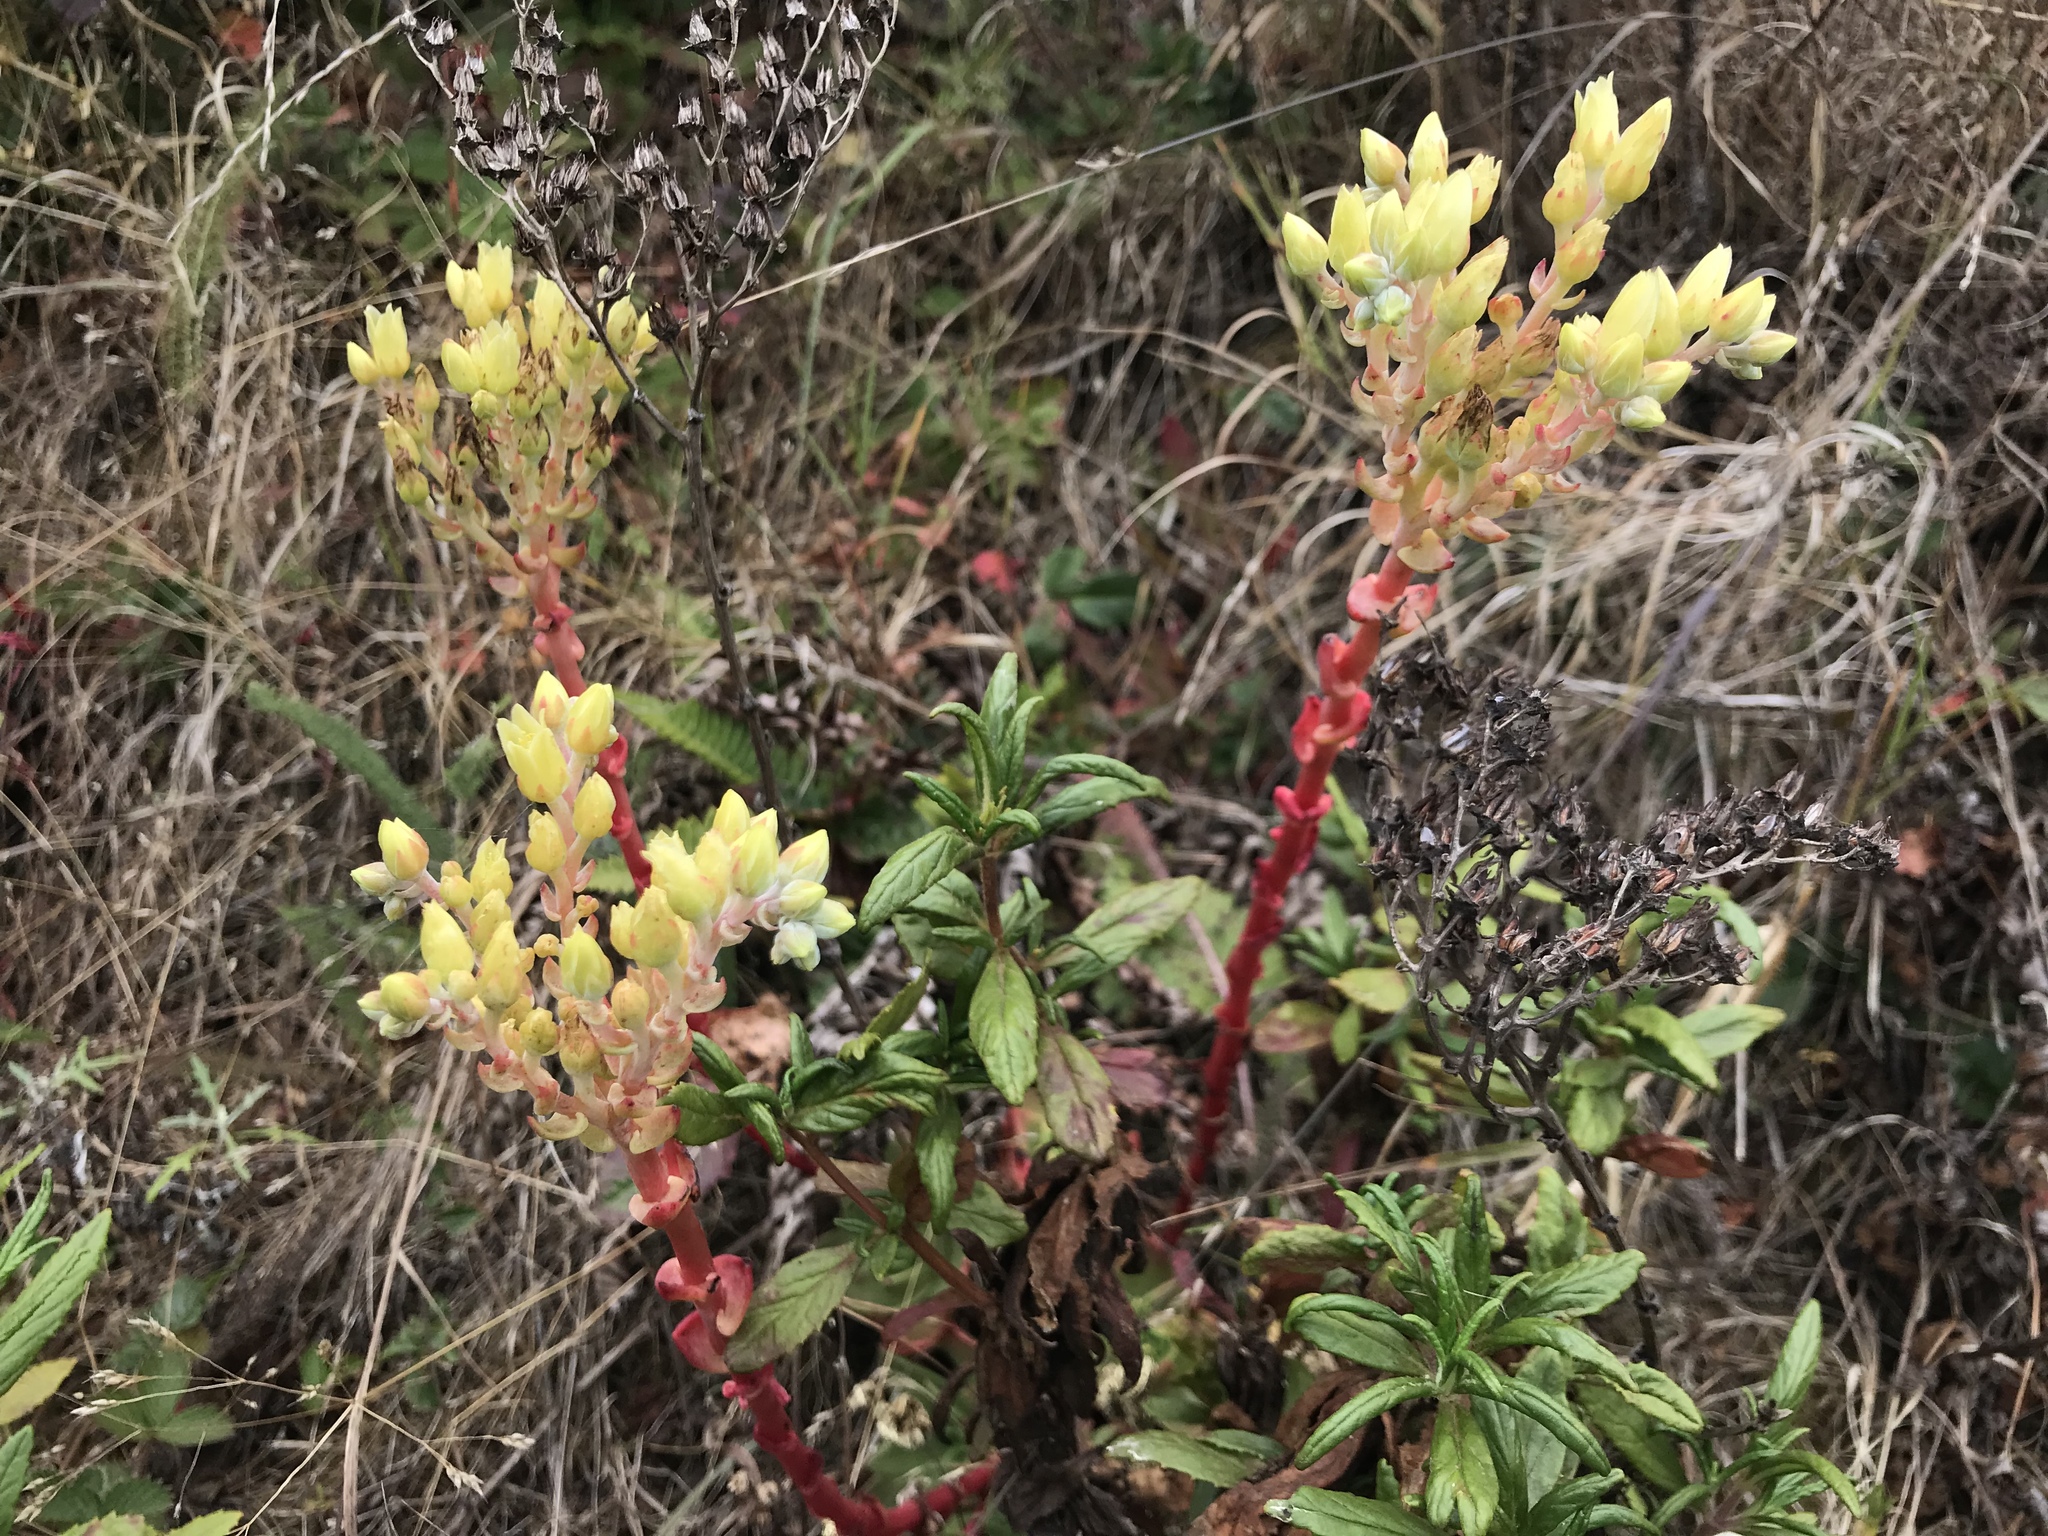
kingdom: Plantae
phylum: Tracheophyta
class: Magnoliopsida
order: Saxifragales
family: Crassulaceae
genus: Dudleya
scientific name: Dudleya farinosa
